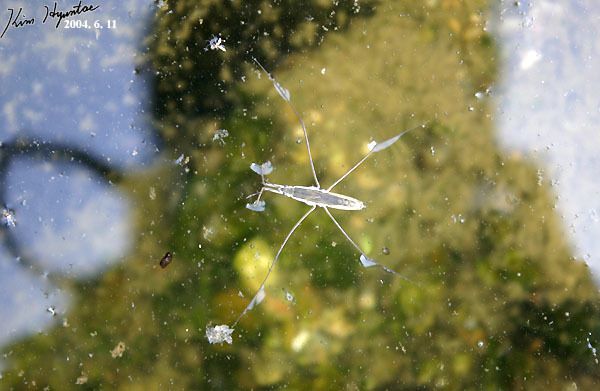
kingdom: Animalia
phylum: Arthropoda
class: Insecta
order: Hemiptera
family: Gerridae
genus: Aquarius
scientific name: Aquarius paludum
